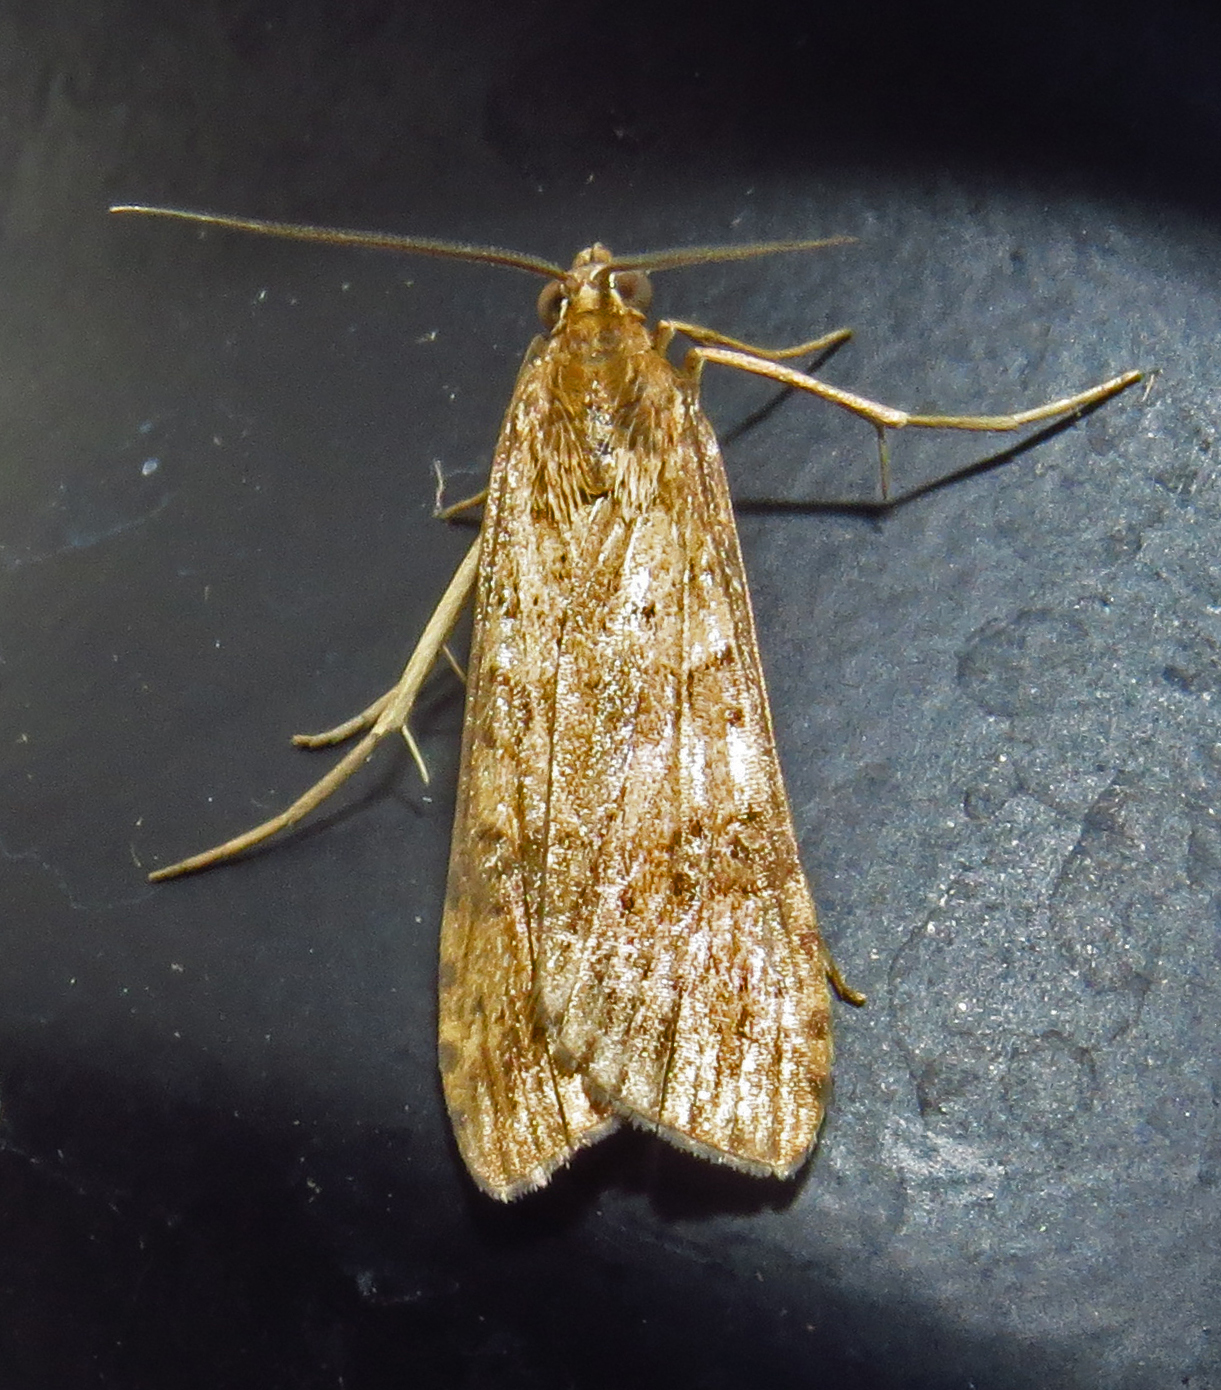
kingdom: Animalia
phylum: Arthropoda
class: Insecta
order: Lepidoptera
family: Crambidae
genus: Nomophila
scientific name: Nomophila nearctica
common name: American rush veneer
